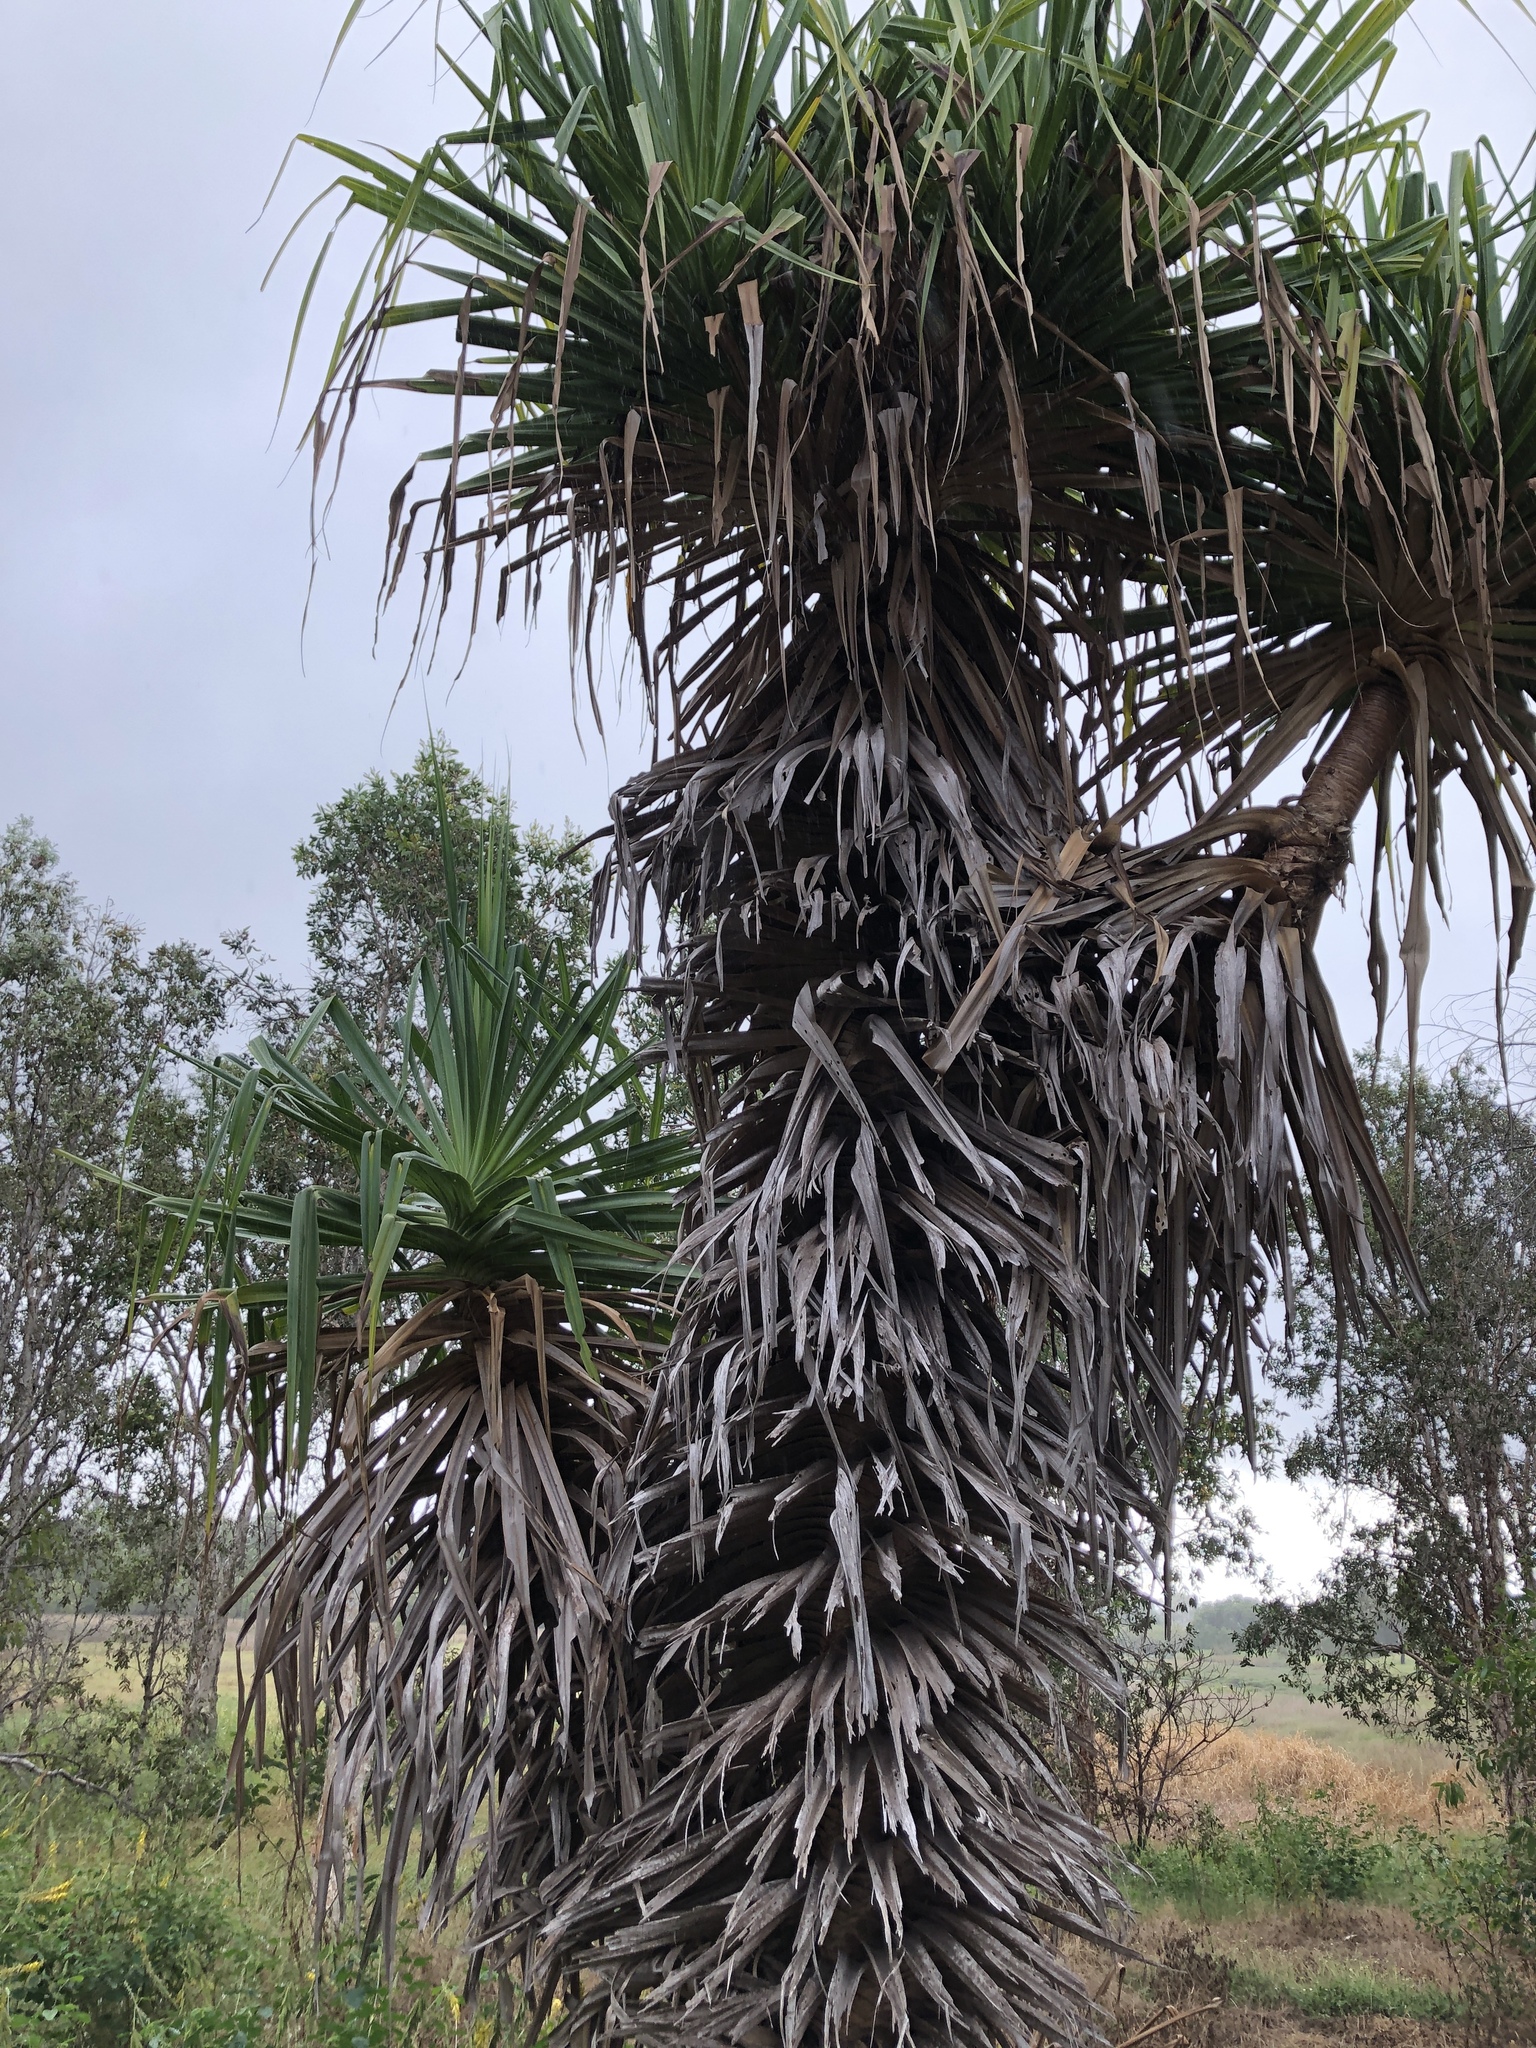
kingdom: Plantae
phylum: Tracheophyta
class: Liliopsida
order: Pandanales
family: Pandanaceae
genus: Pandanus
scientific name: Pandanus spiralis
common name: Screw-pine
